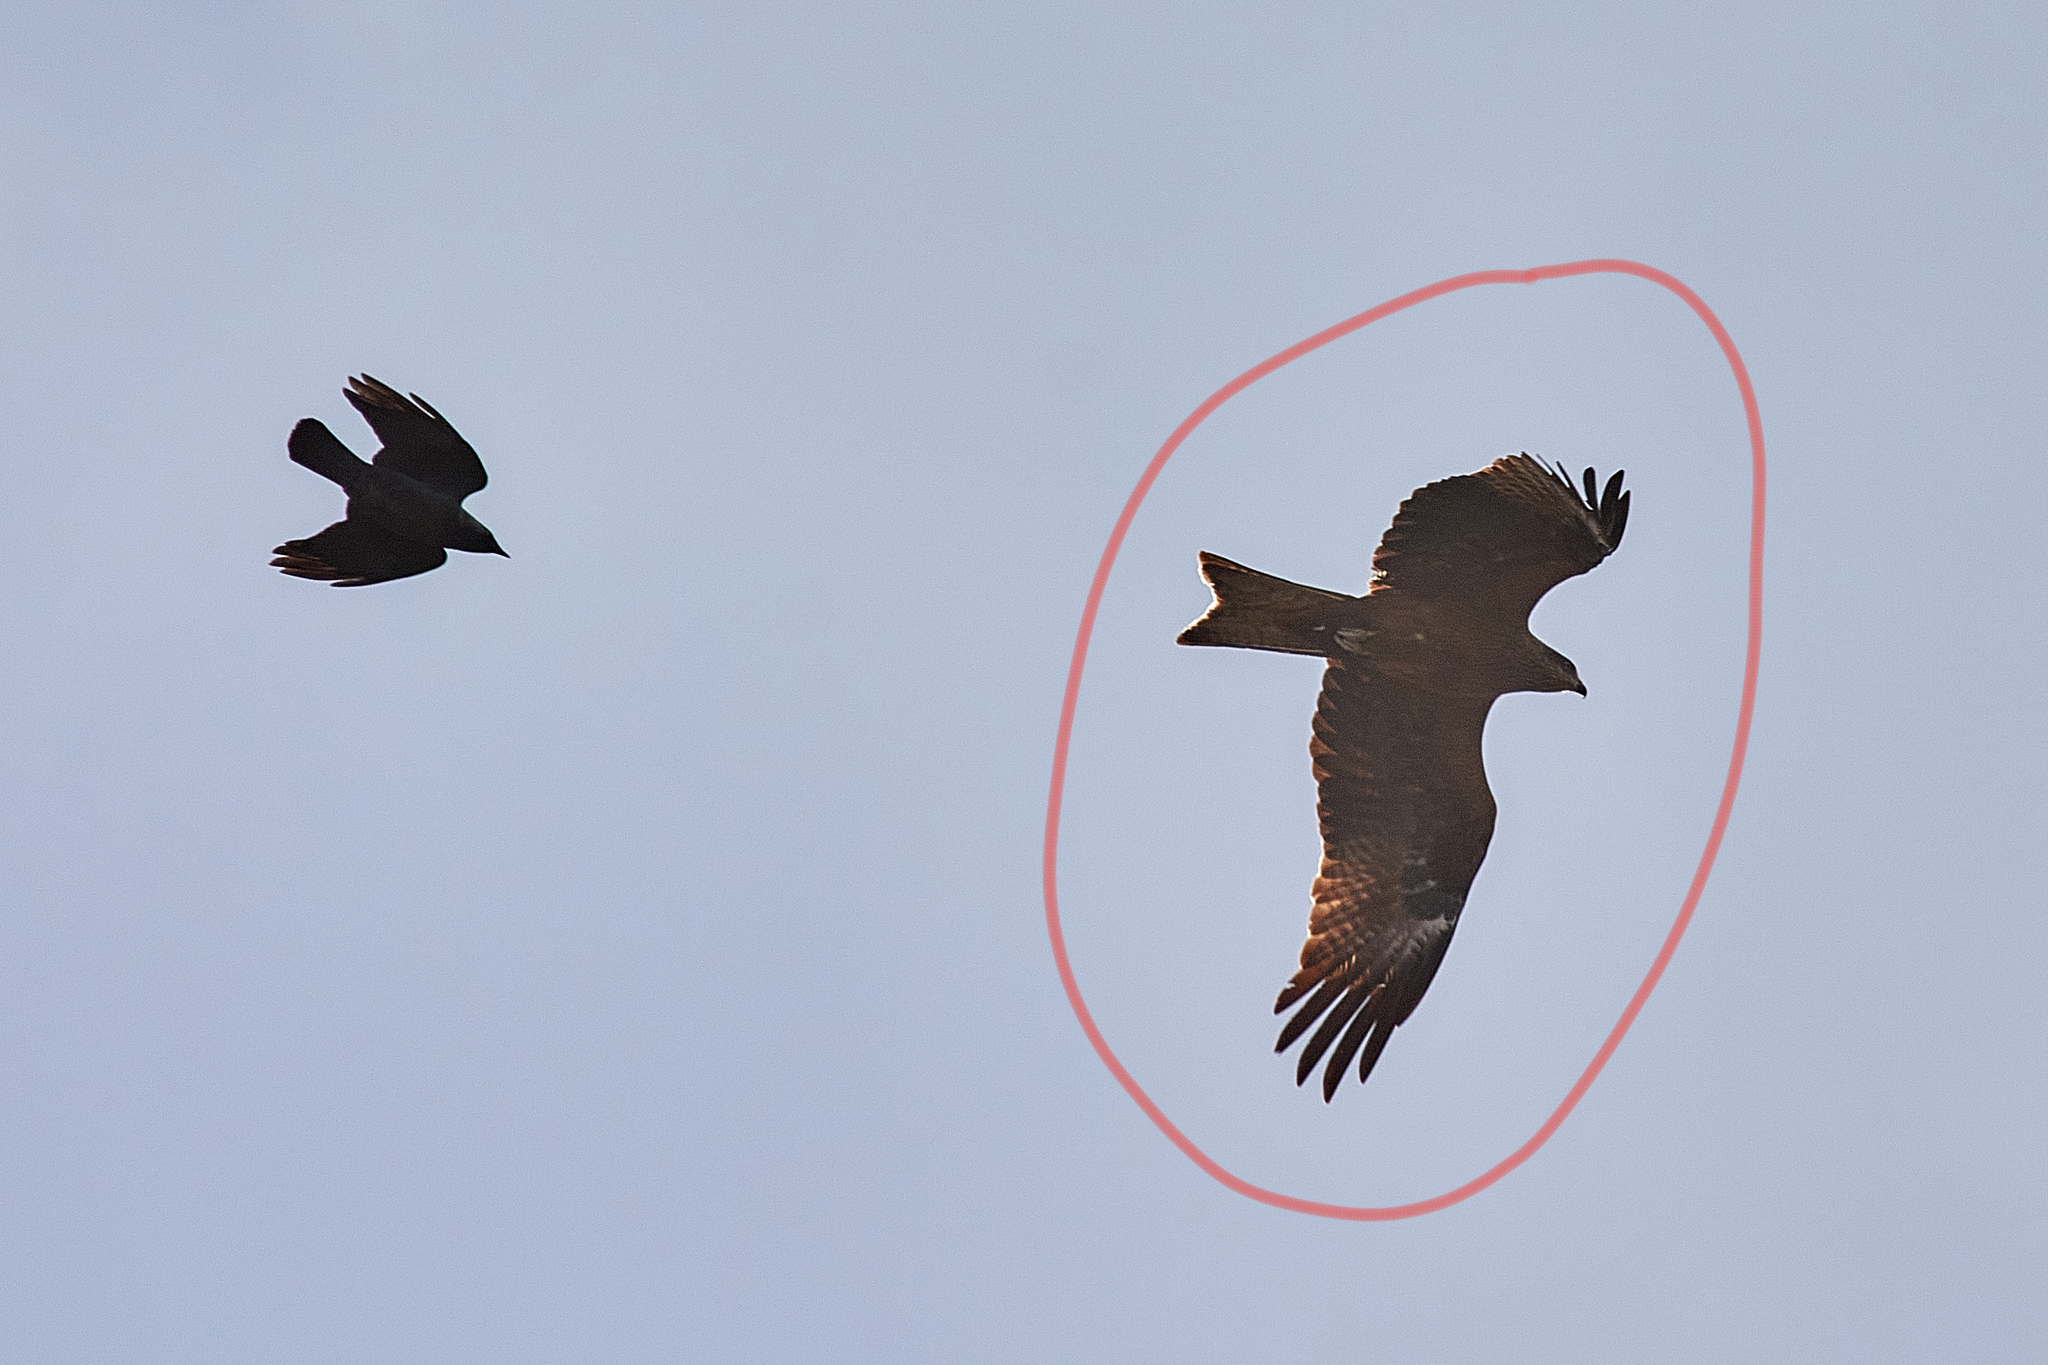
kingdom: Animalia
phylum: Chordata
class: Aves
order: Accipitriformes
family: Accipitridae
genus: Milvus
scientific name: Milvus migrans
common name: Black kite
